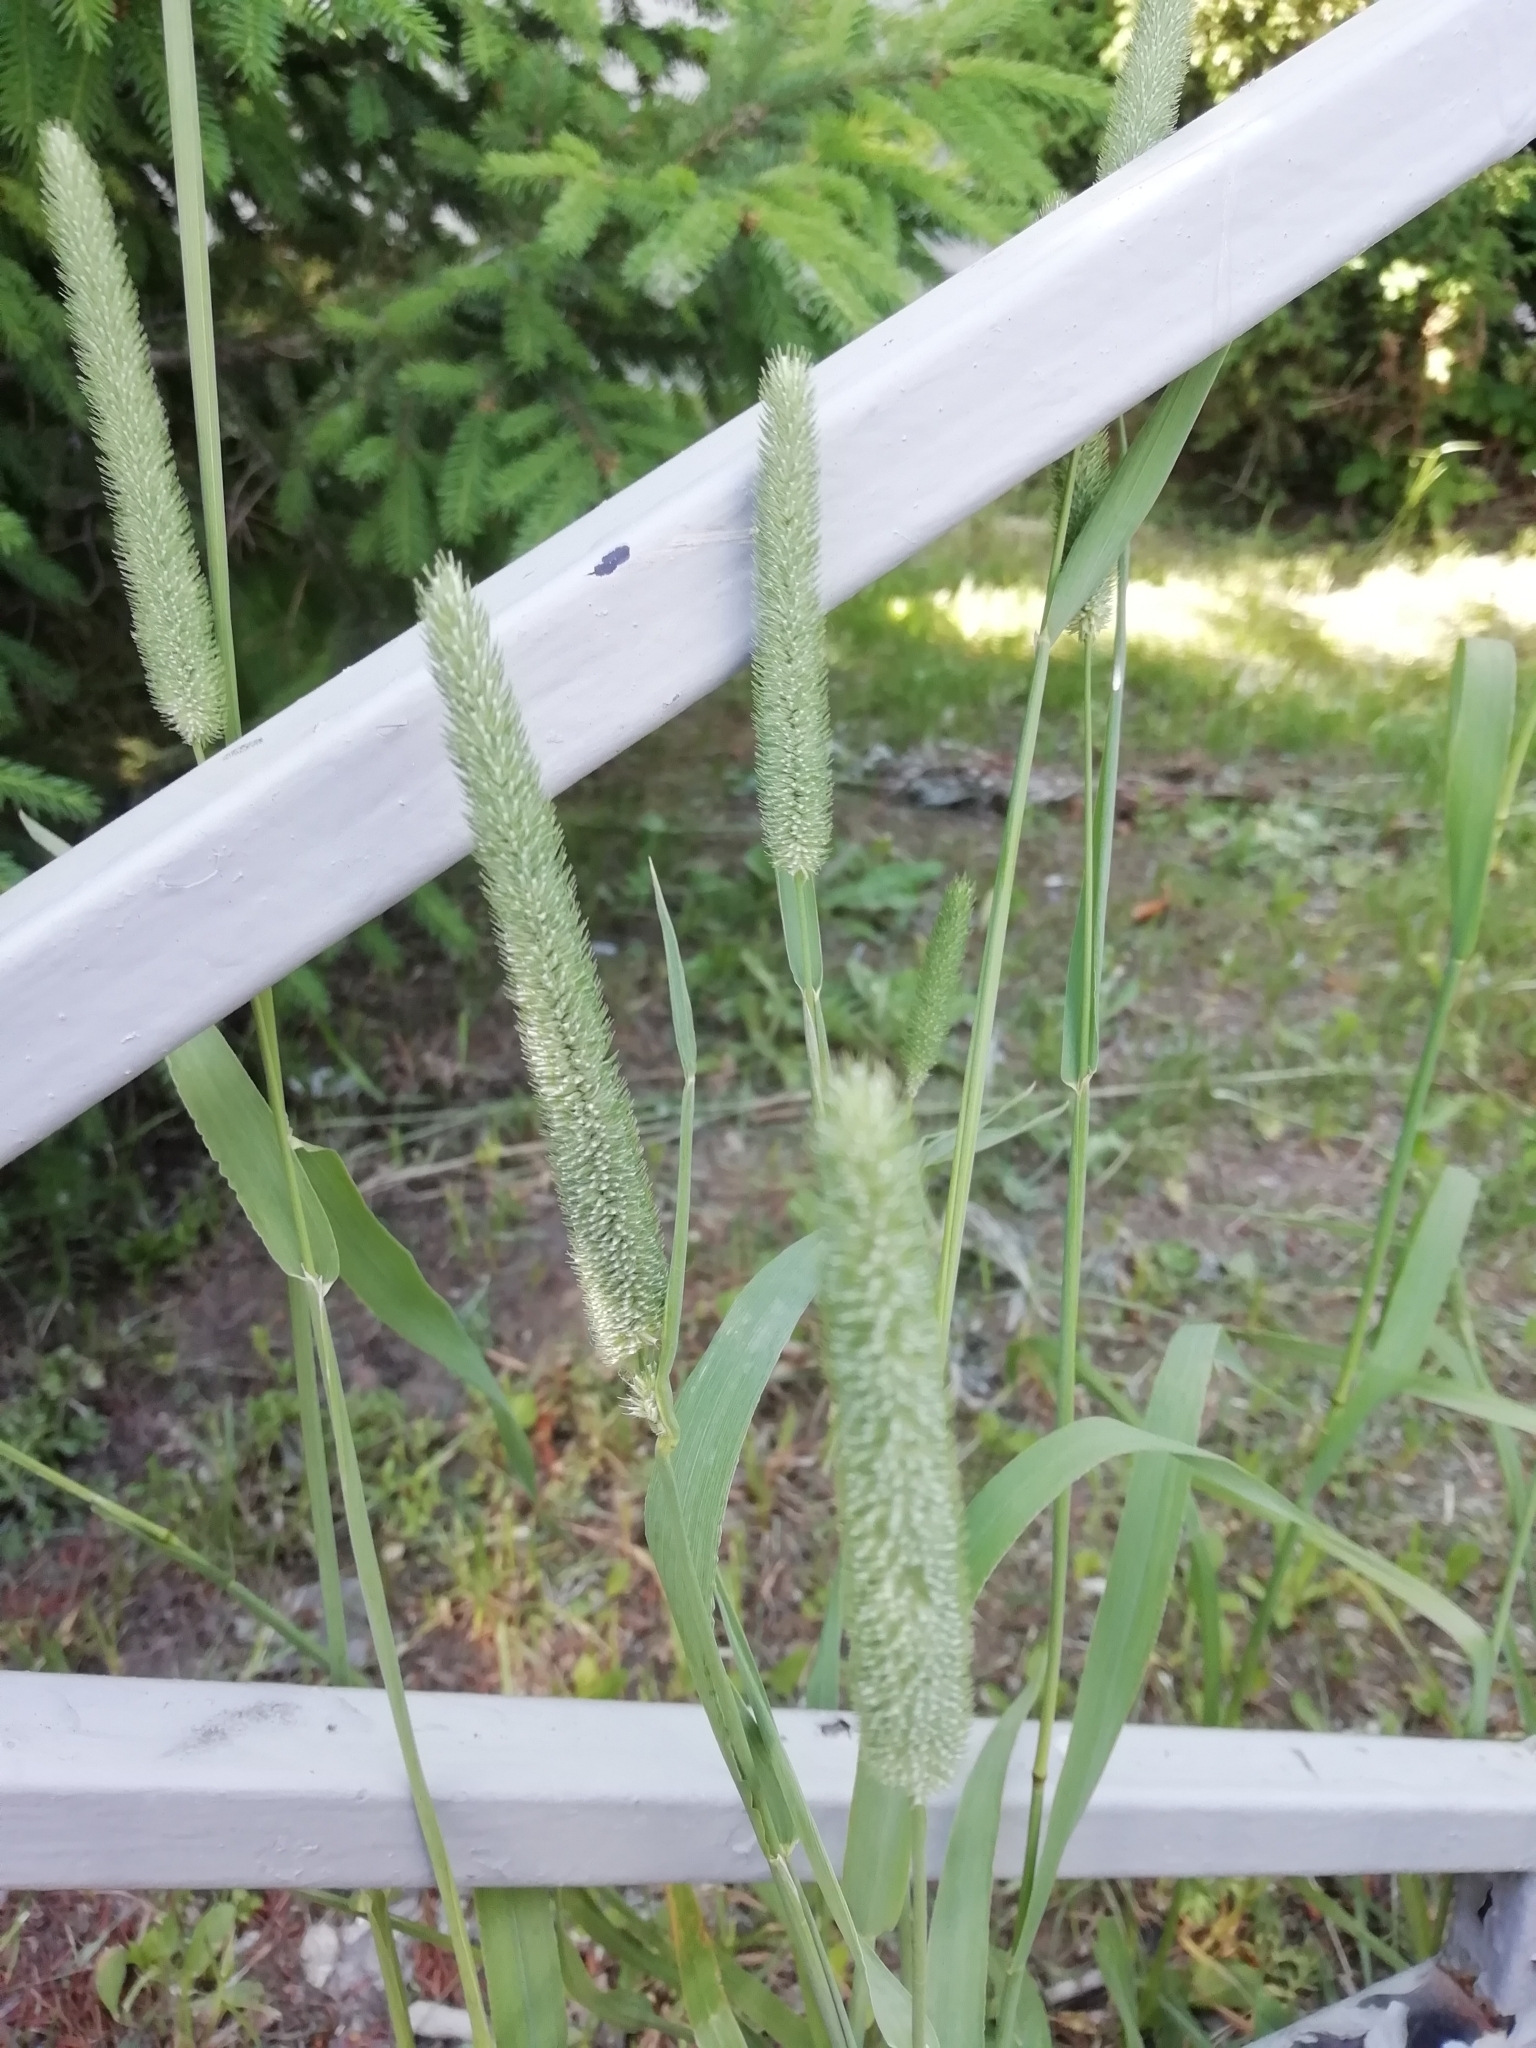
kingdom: Plantae
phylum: Tracheophyta
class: Liliopsida
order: Poales
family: Poaceae
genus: Phleum
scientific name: Phleum pratense
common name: Timothy grass
